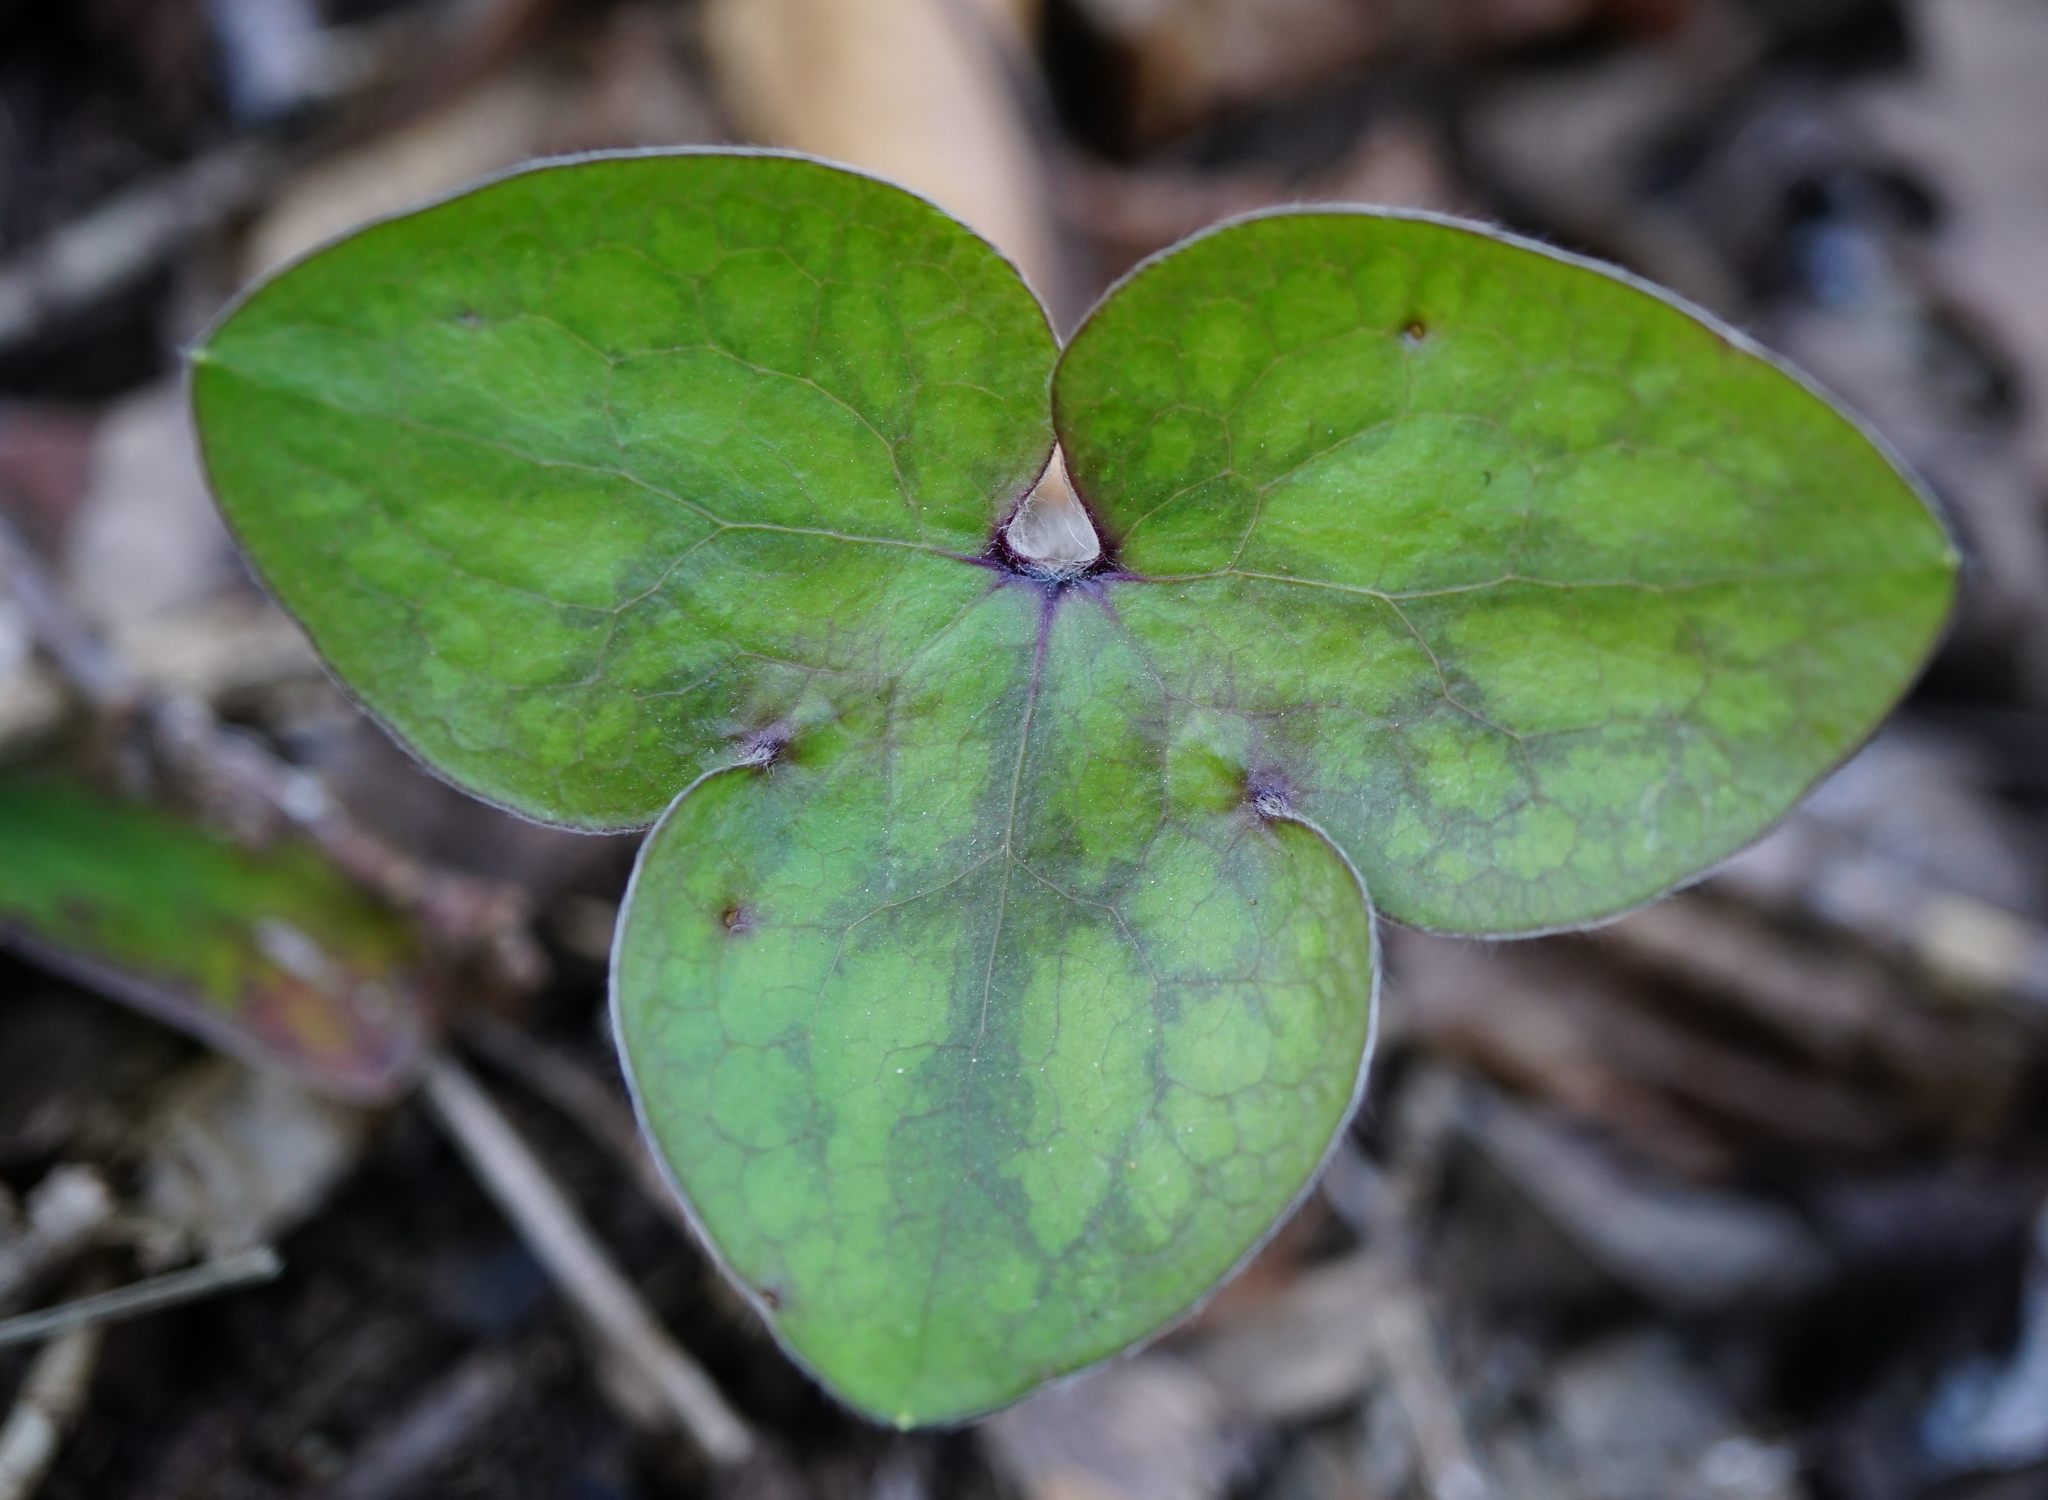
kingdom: Plantae
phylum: Tracheophyta
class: Magnoliopsida
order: Ranunculales
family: Ranunculaceae
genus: Hepatica
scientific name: Hepatica nobilis
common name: Liverleaf
